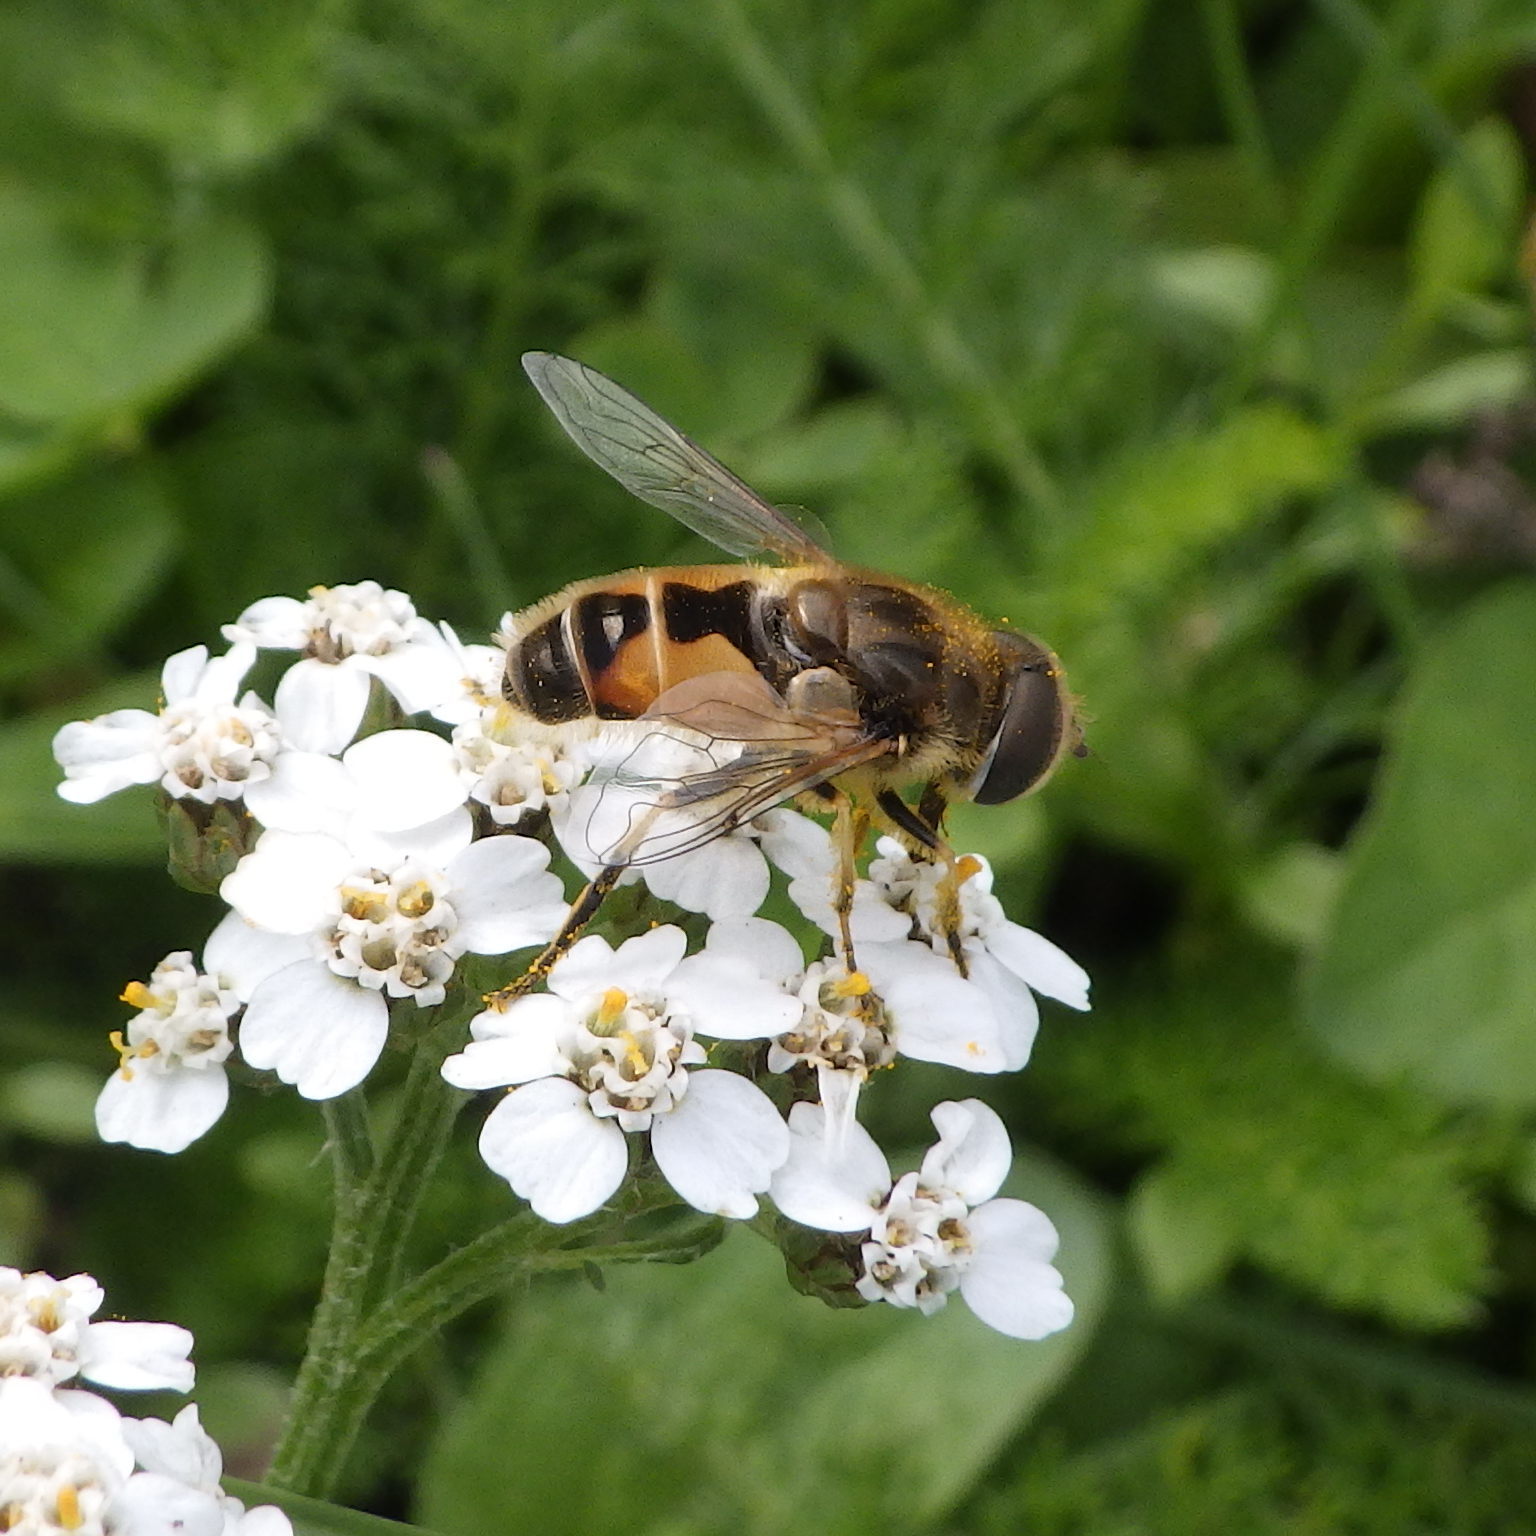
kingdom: Animalia
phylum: Arthropoda
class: Insecta
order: Diptera
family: Syrphidae
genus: Eristalis
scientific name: Eristalis arbustorum
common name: Hover fly
